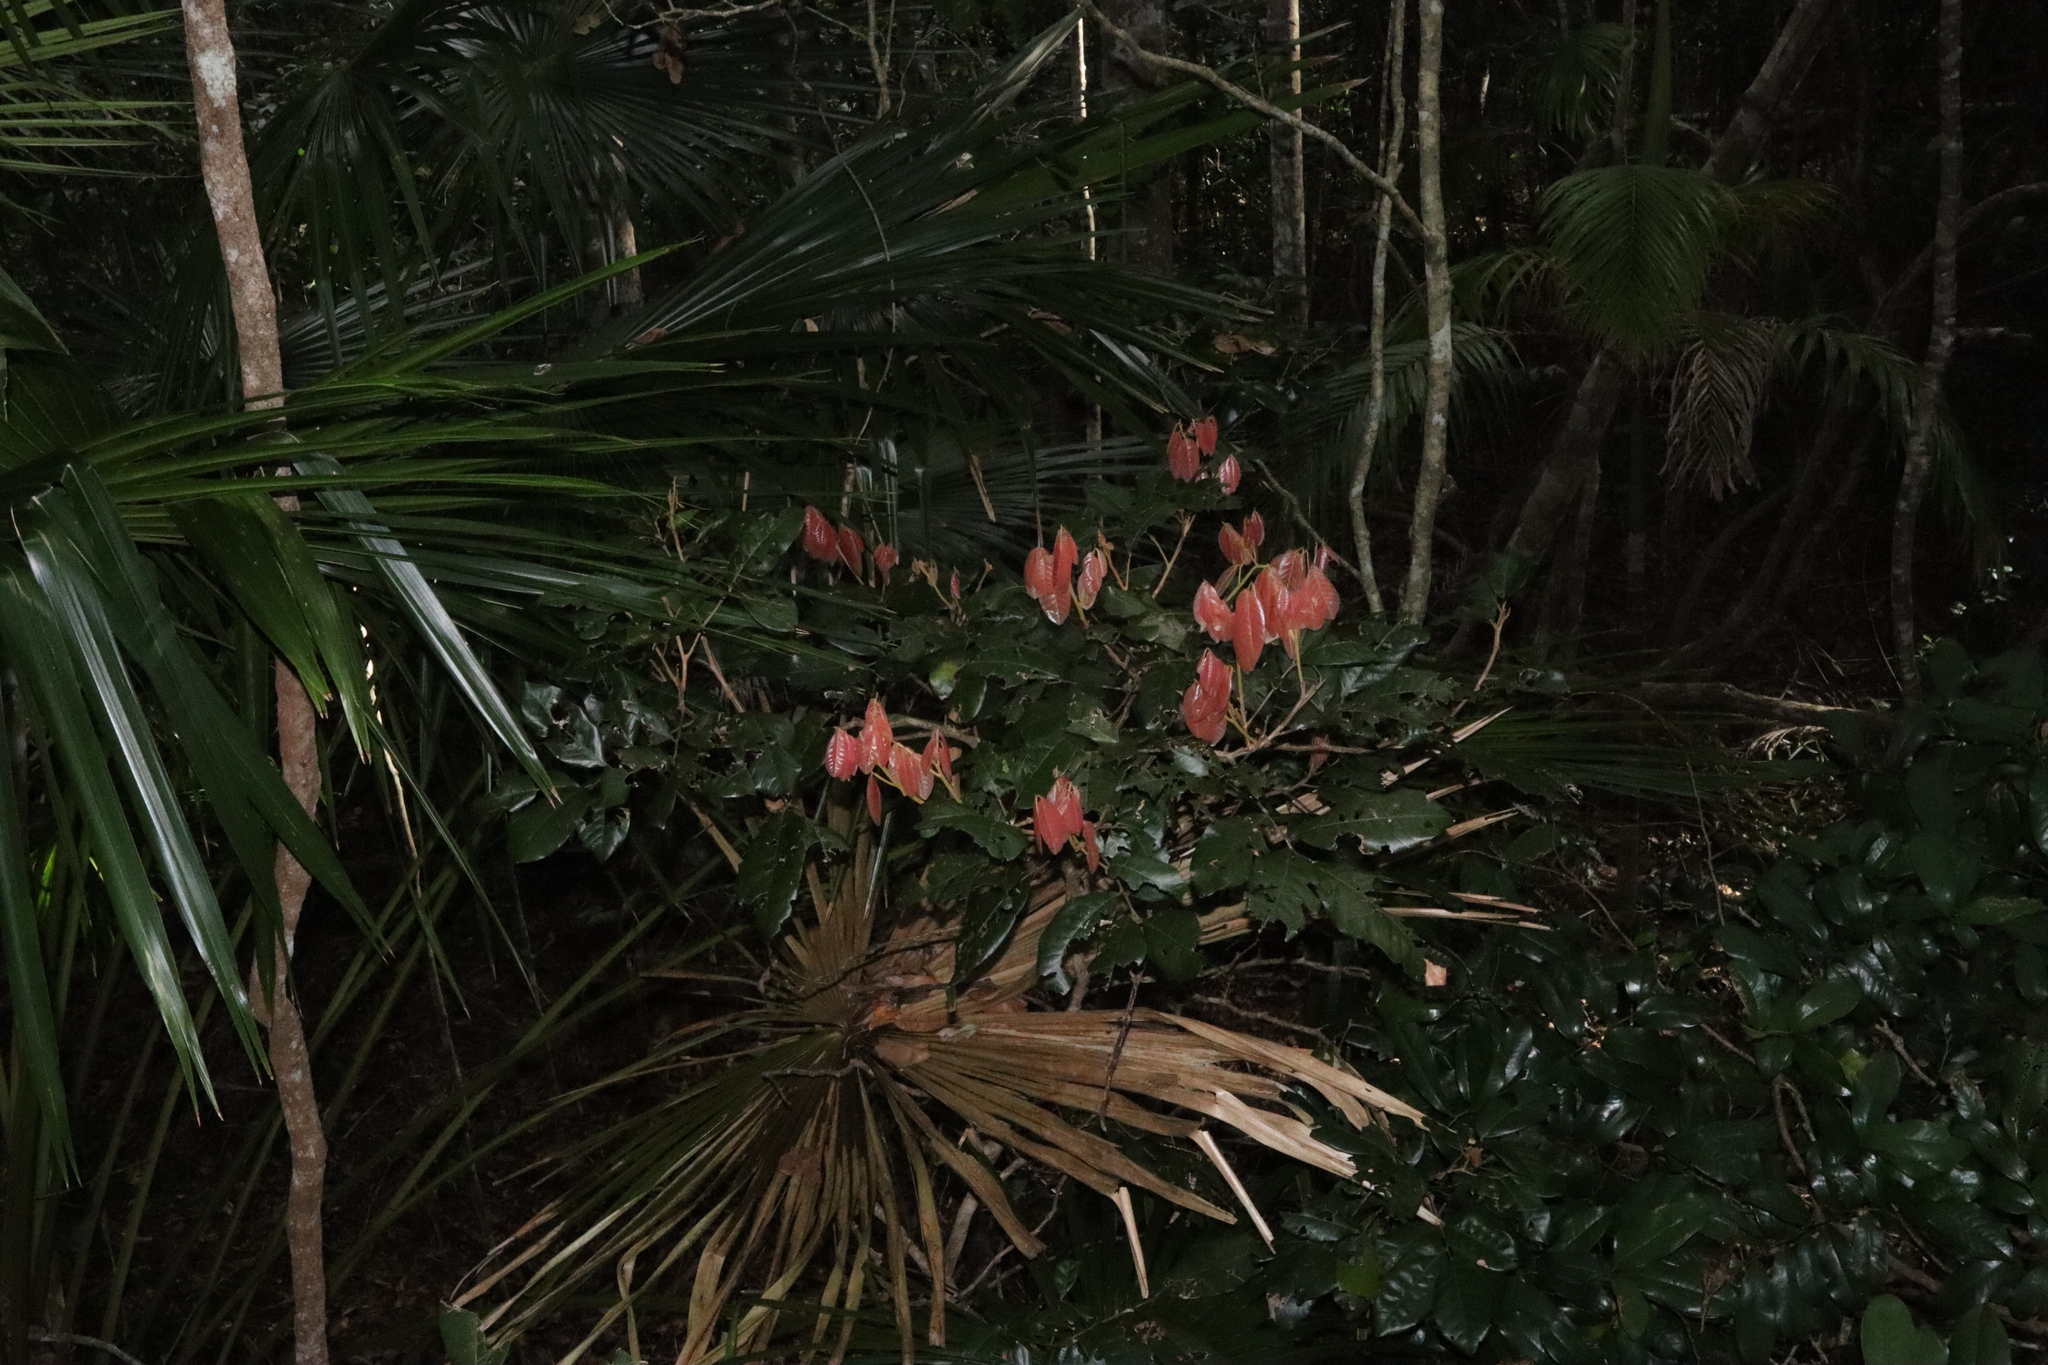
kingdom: Plantae
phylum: Tracheophyta
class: Magnoliopsida
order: Sapindales
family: Sapindaceae
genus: Arytera
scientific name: Arytera divaricata
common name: Coogera
